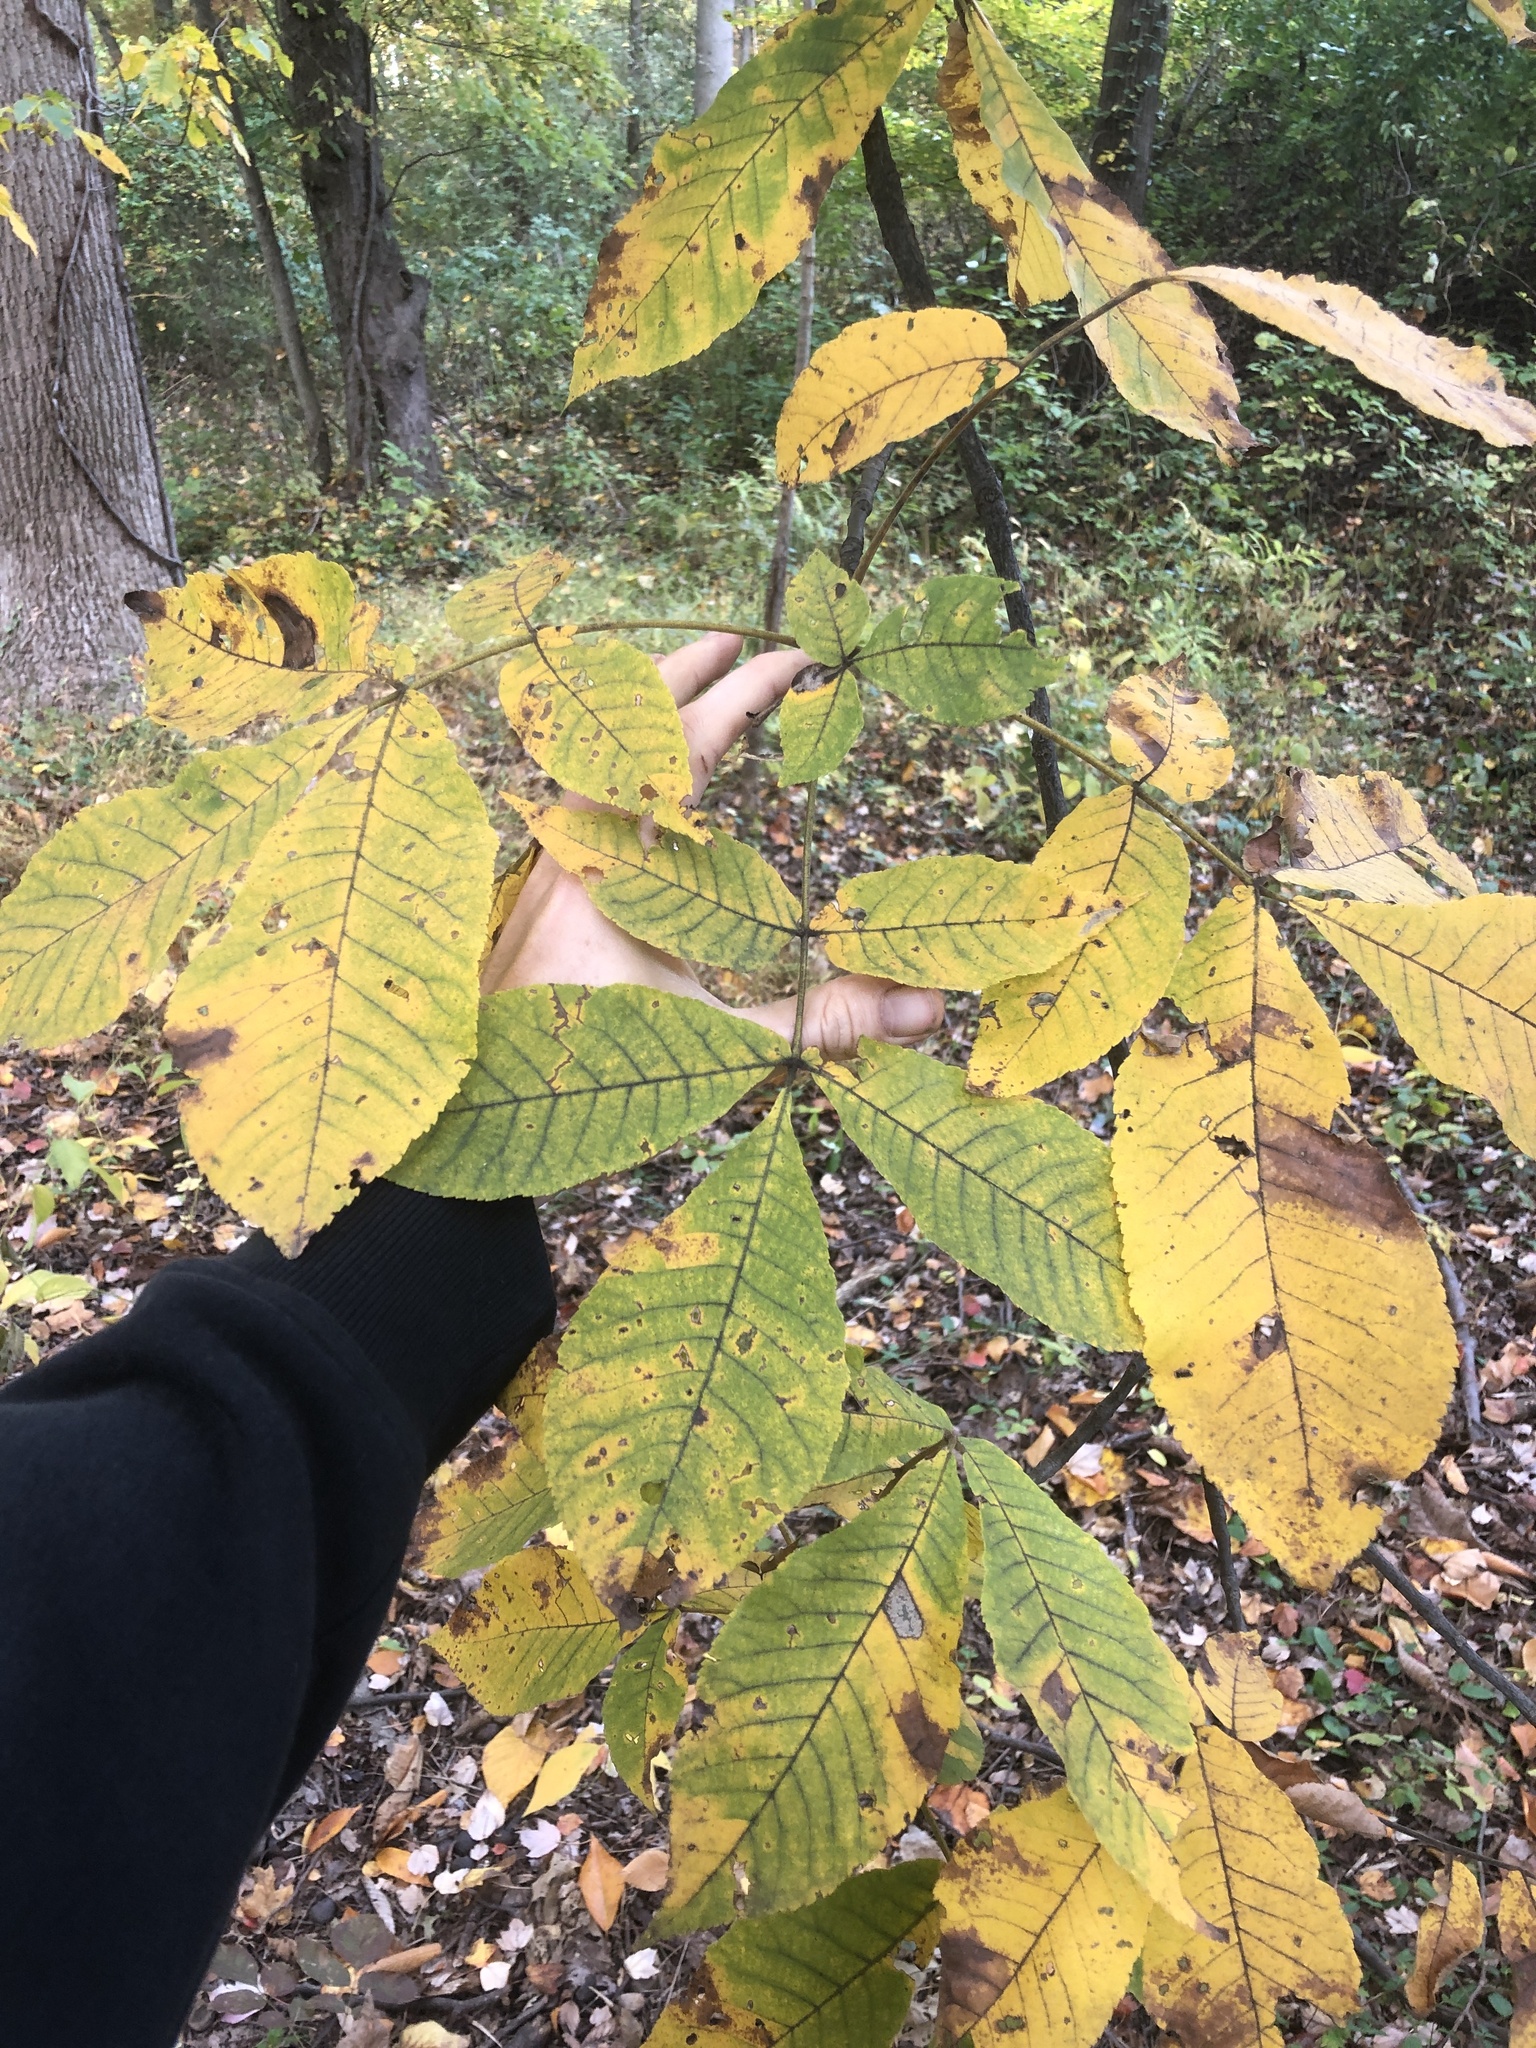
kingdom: Plantae
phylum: Tracheophyta
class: Magnoliopsida
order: Fagales
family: Juglandaceae
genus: Carya
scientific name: Carya ovata
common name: Shagbark hickory
